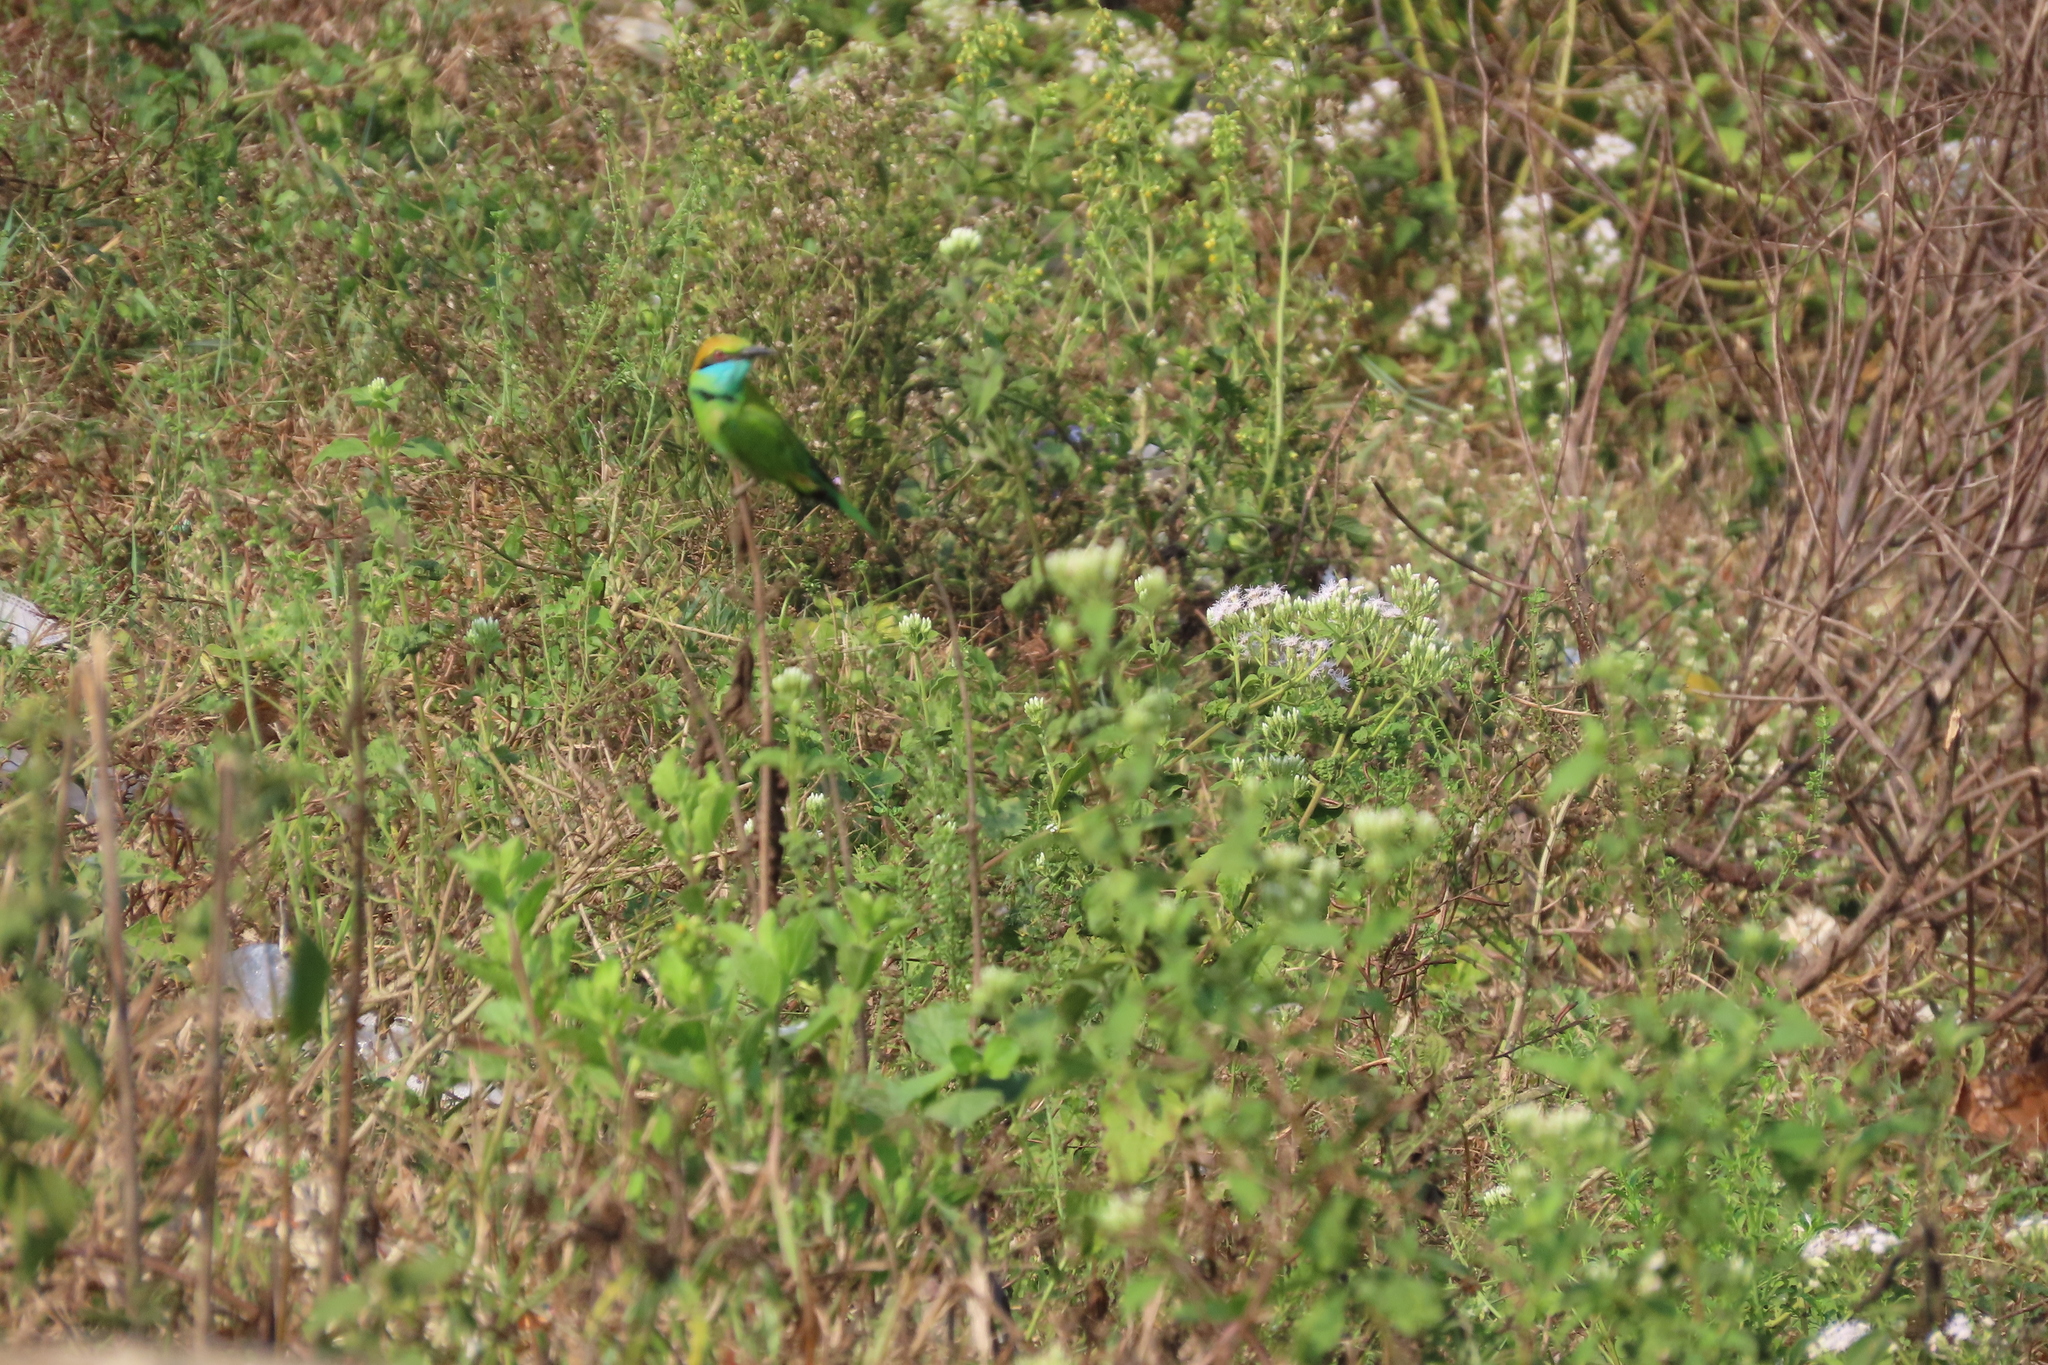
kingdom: Animalia
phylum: Chordata
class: Aves
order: Coraciiformes
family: Meropidae
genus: Merops
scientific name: Merops orientalis
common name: Green bee-eater
